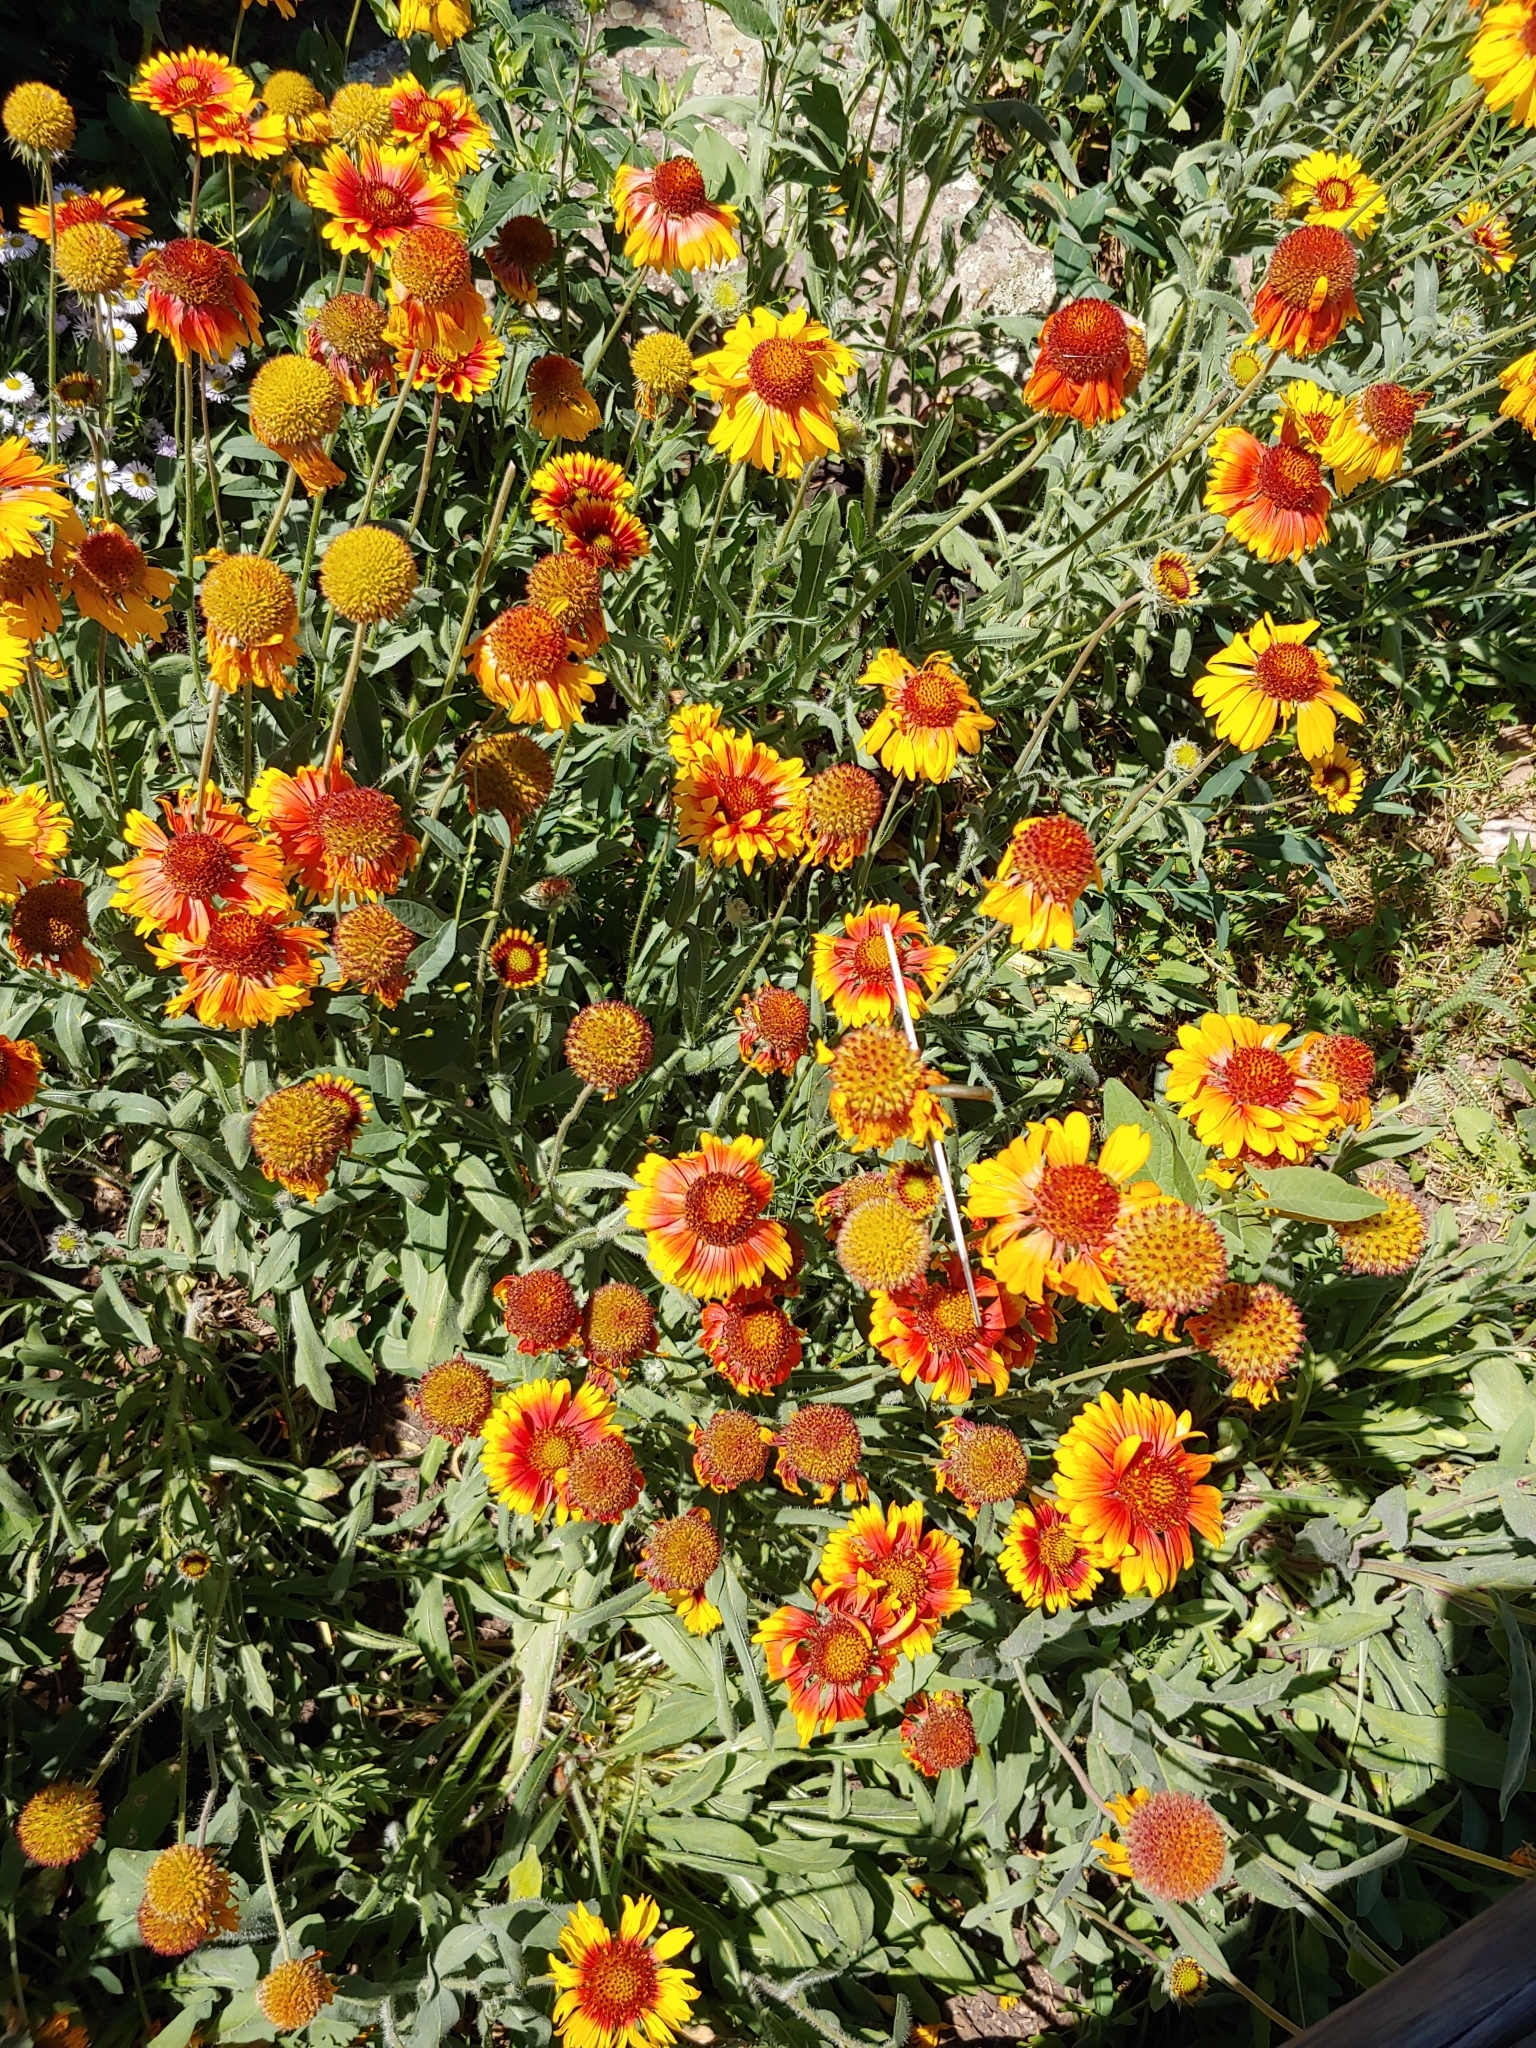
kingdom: Plantae
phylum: Tracheophyta
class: Magnoliopsida
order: Asterales
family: Asteraceae
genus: Gaillardia
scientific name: Gaillardia aristata
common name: Blanket-flower
